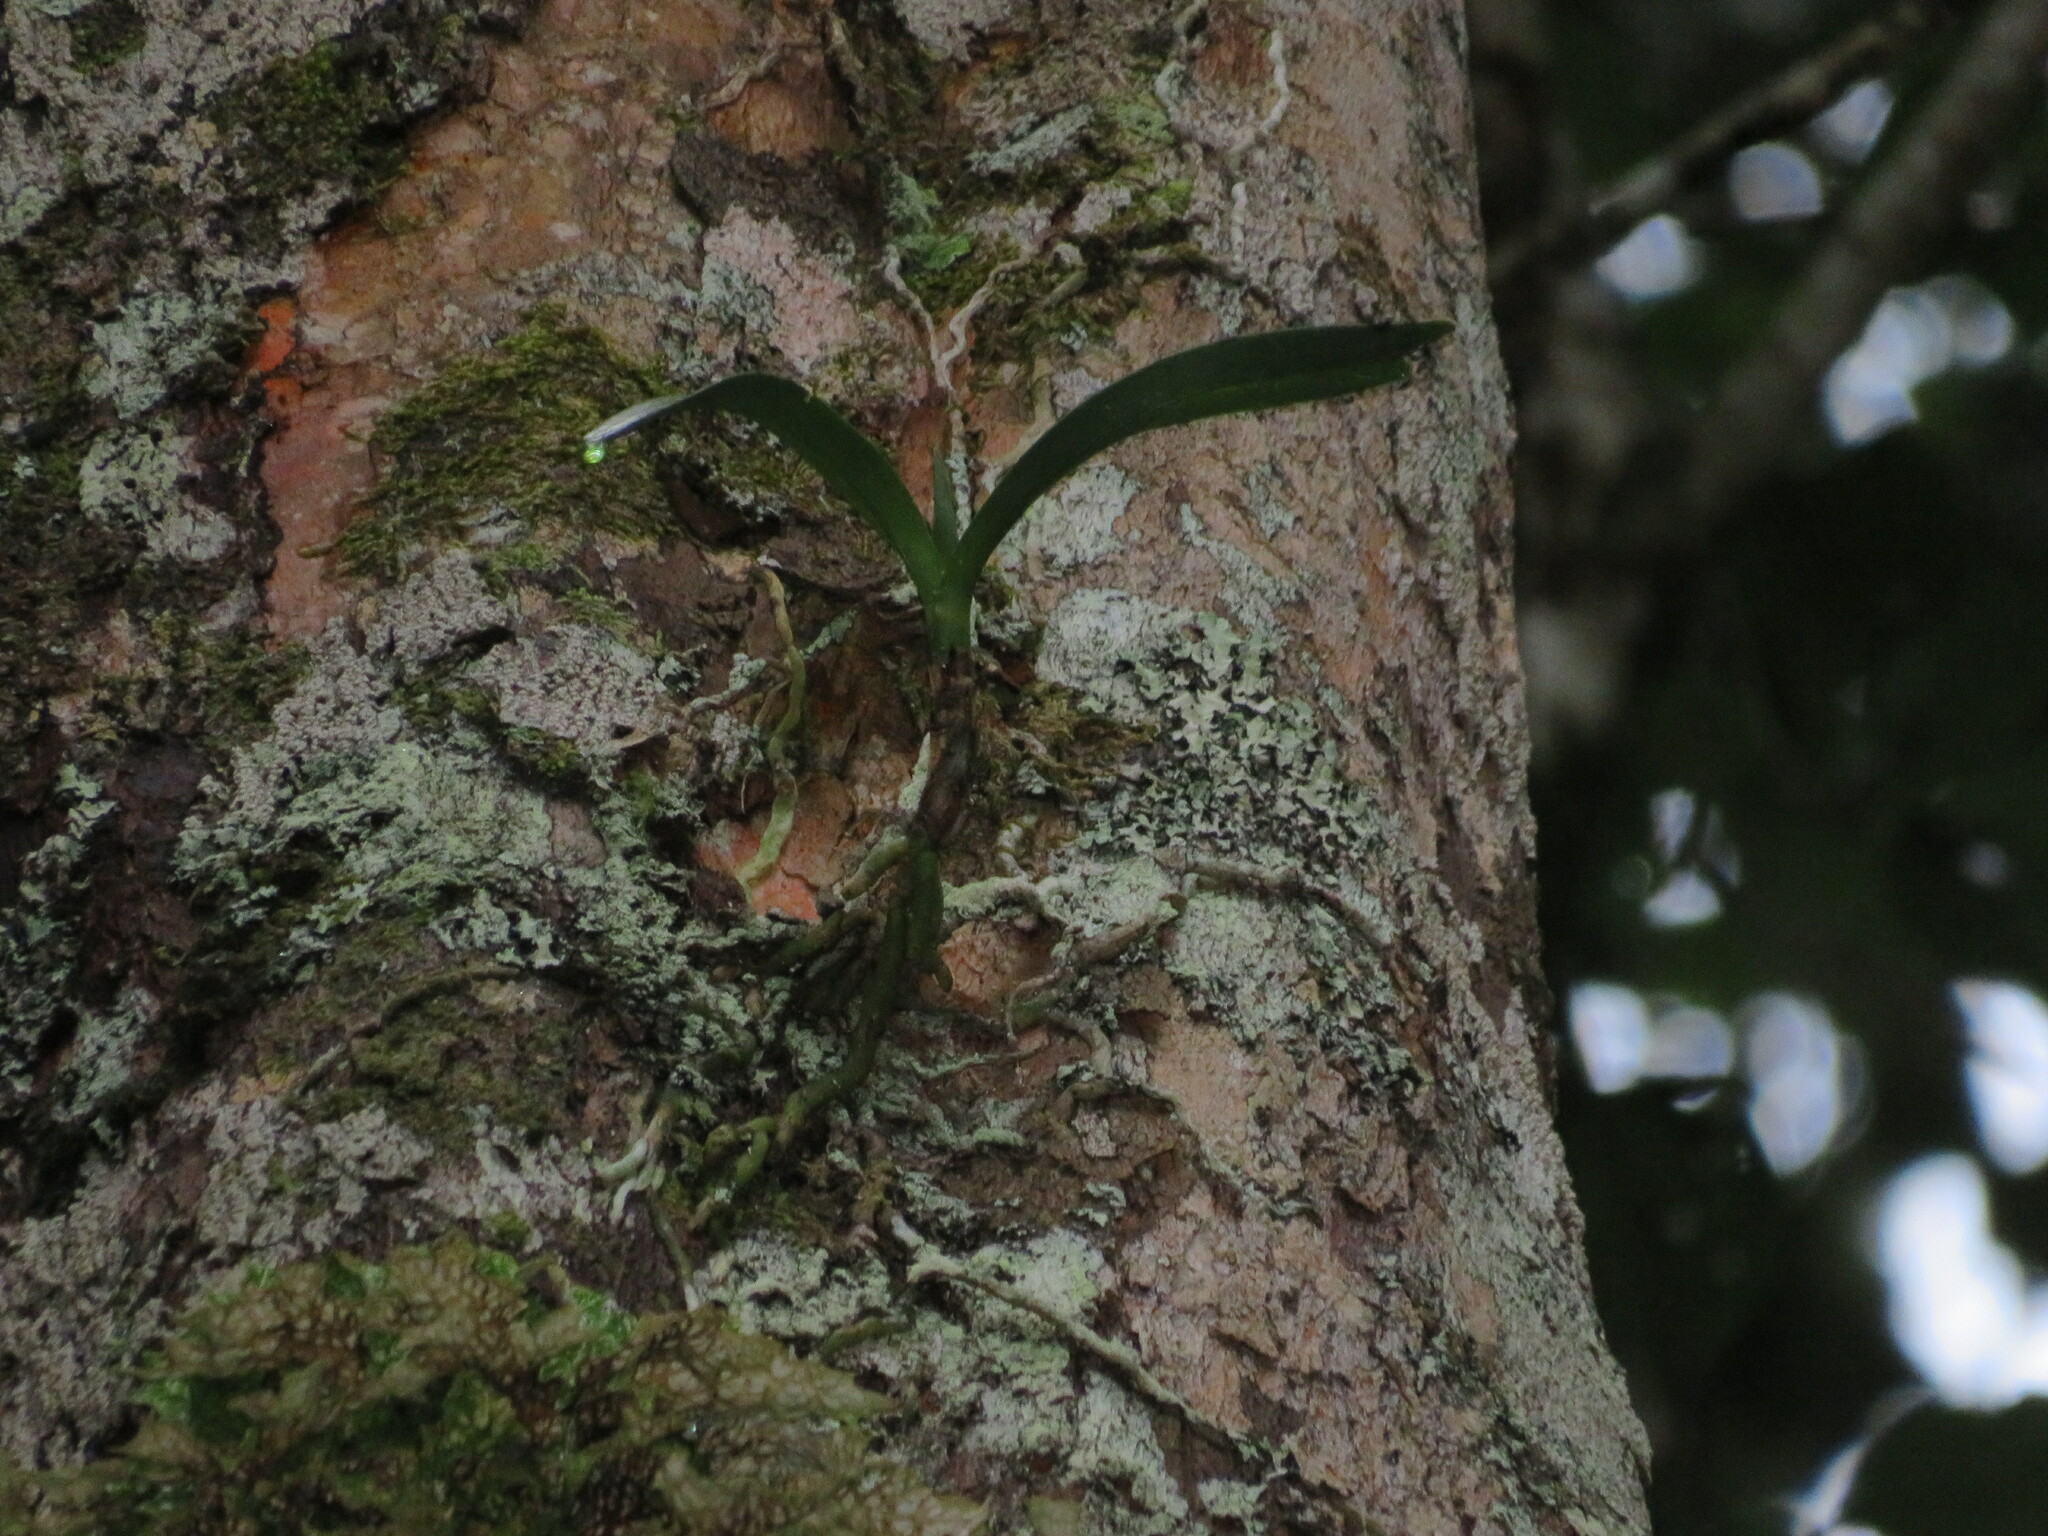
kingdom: Plantae
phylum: Tracheophyta
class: Liliopsida
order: Asparagales
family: Orchidaceae
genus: Tridactyle
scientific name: Tridactyle bicaudata
